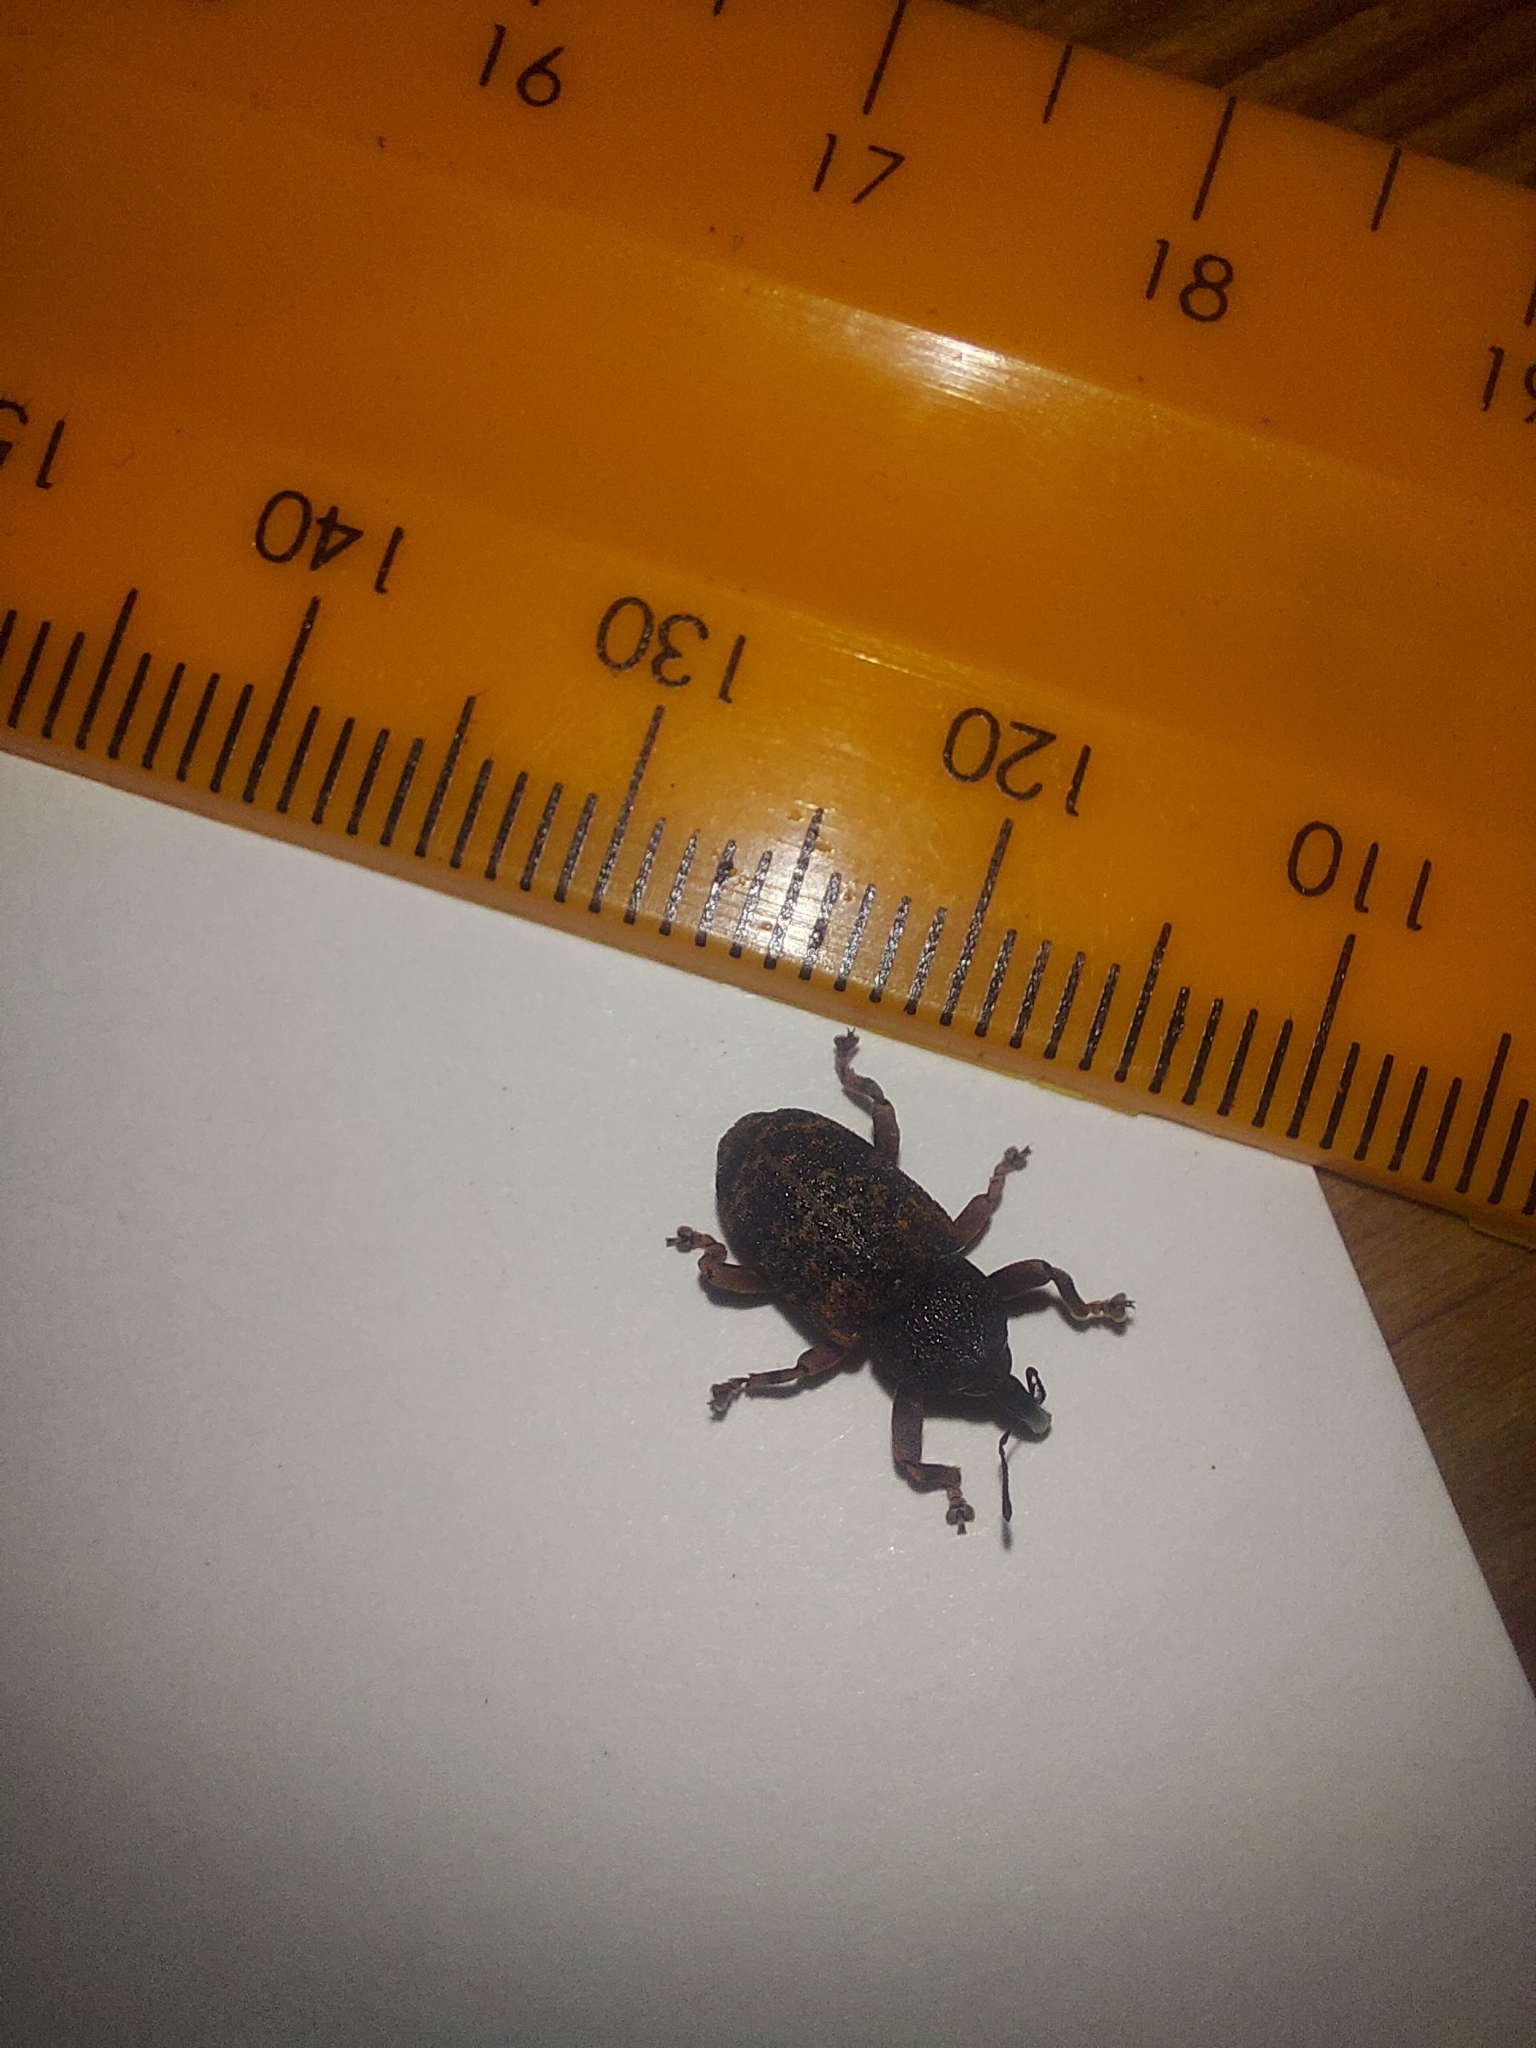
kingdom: Animalia
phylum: Arthropoda
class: Insecta
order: Coleoptera
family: Curculionidae
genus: Rhadinomerus
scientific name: Rhadinomerus
